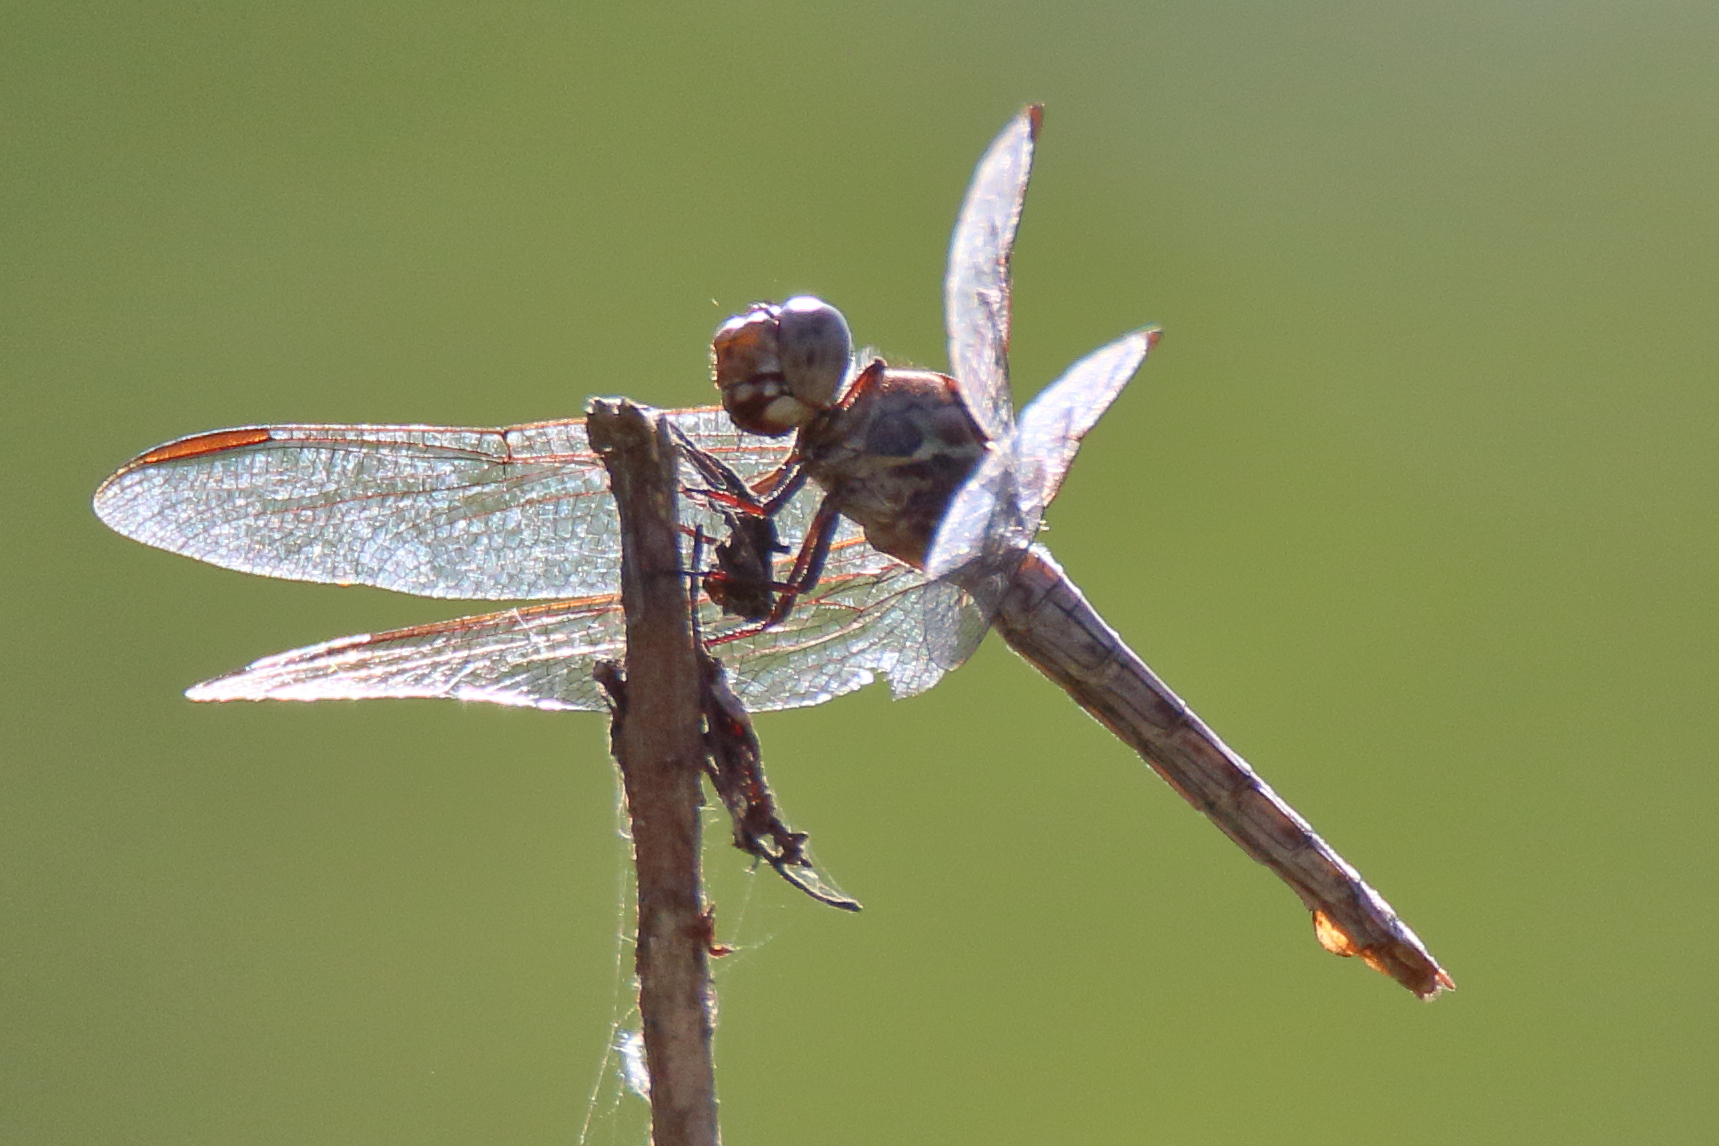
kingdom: Animalia
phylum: Arthropoda
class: Insecta
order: Odonata
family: Libellulidae
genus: Orthemis
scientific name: Orthemis ferruginea
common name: Roseate skimmer
